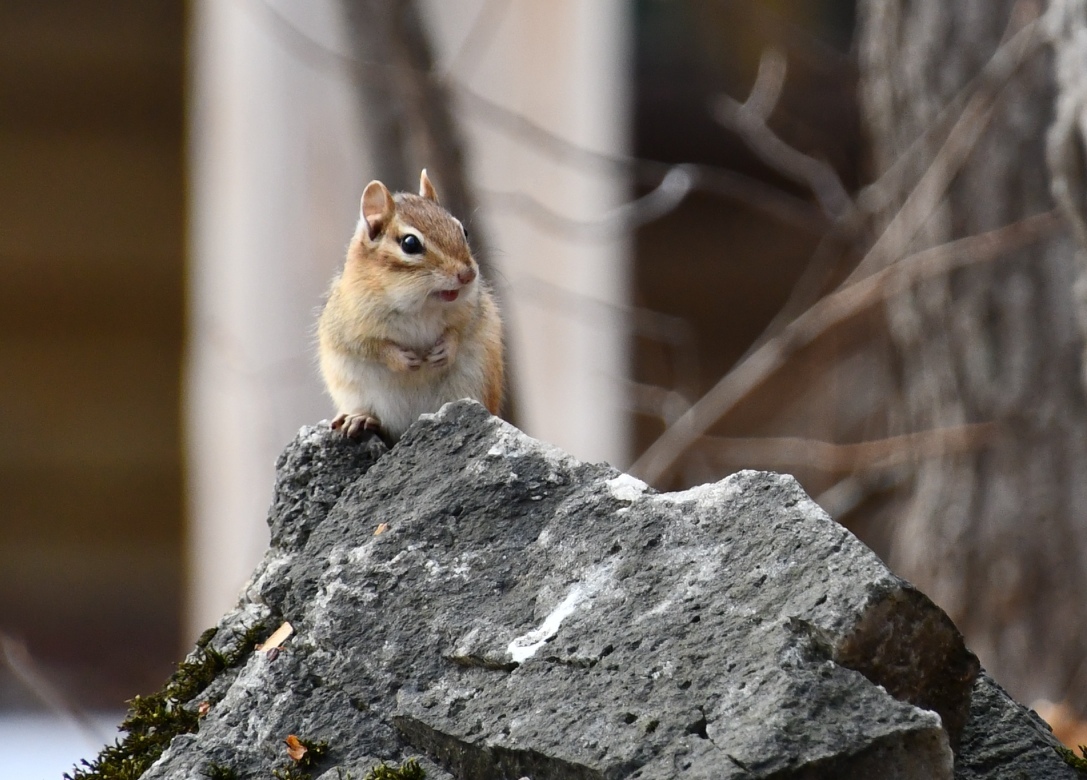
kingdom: Animalia
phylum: Chordata
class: Mammalia
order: Rodentia
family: Sciuridae
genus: Tamias
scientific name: Tamias striatus
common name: Eastern chipmunk
